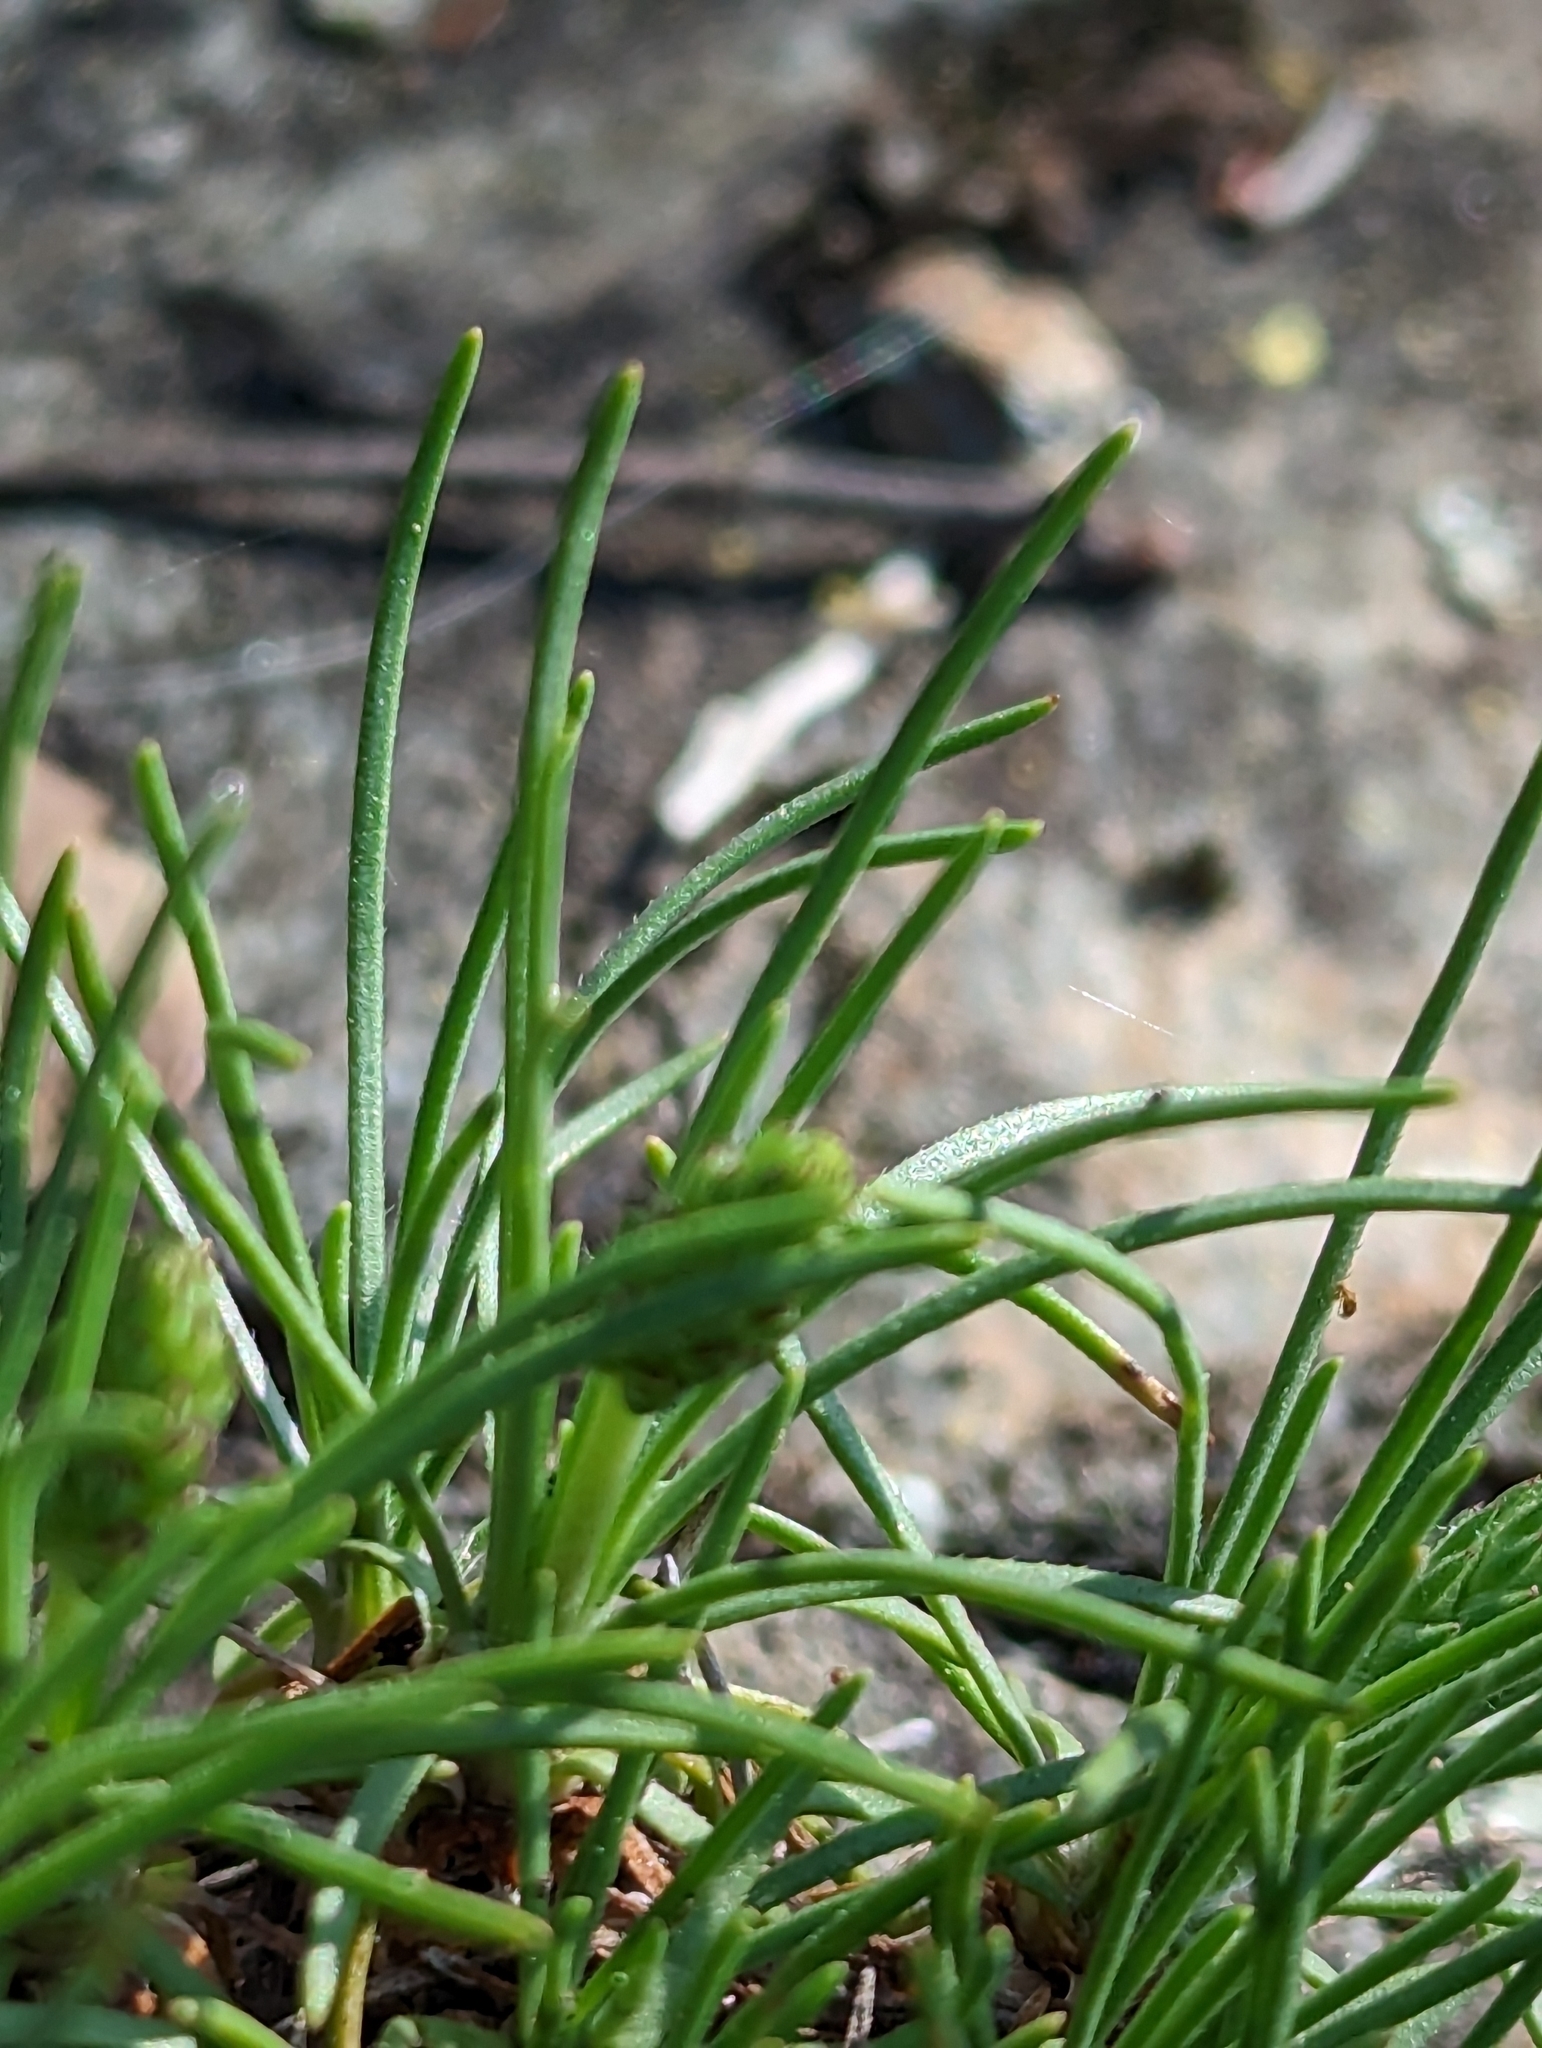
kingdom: Plantae
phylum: Tracheophyta
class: Magnoliopsida
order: Lamiales
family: Plantaginaceae
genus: Plantago
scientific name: Plantago subulata
